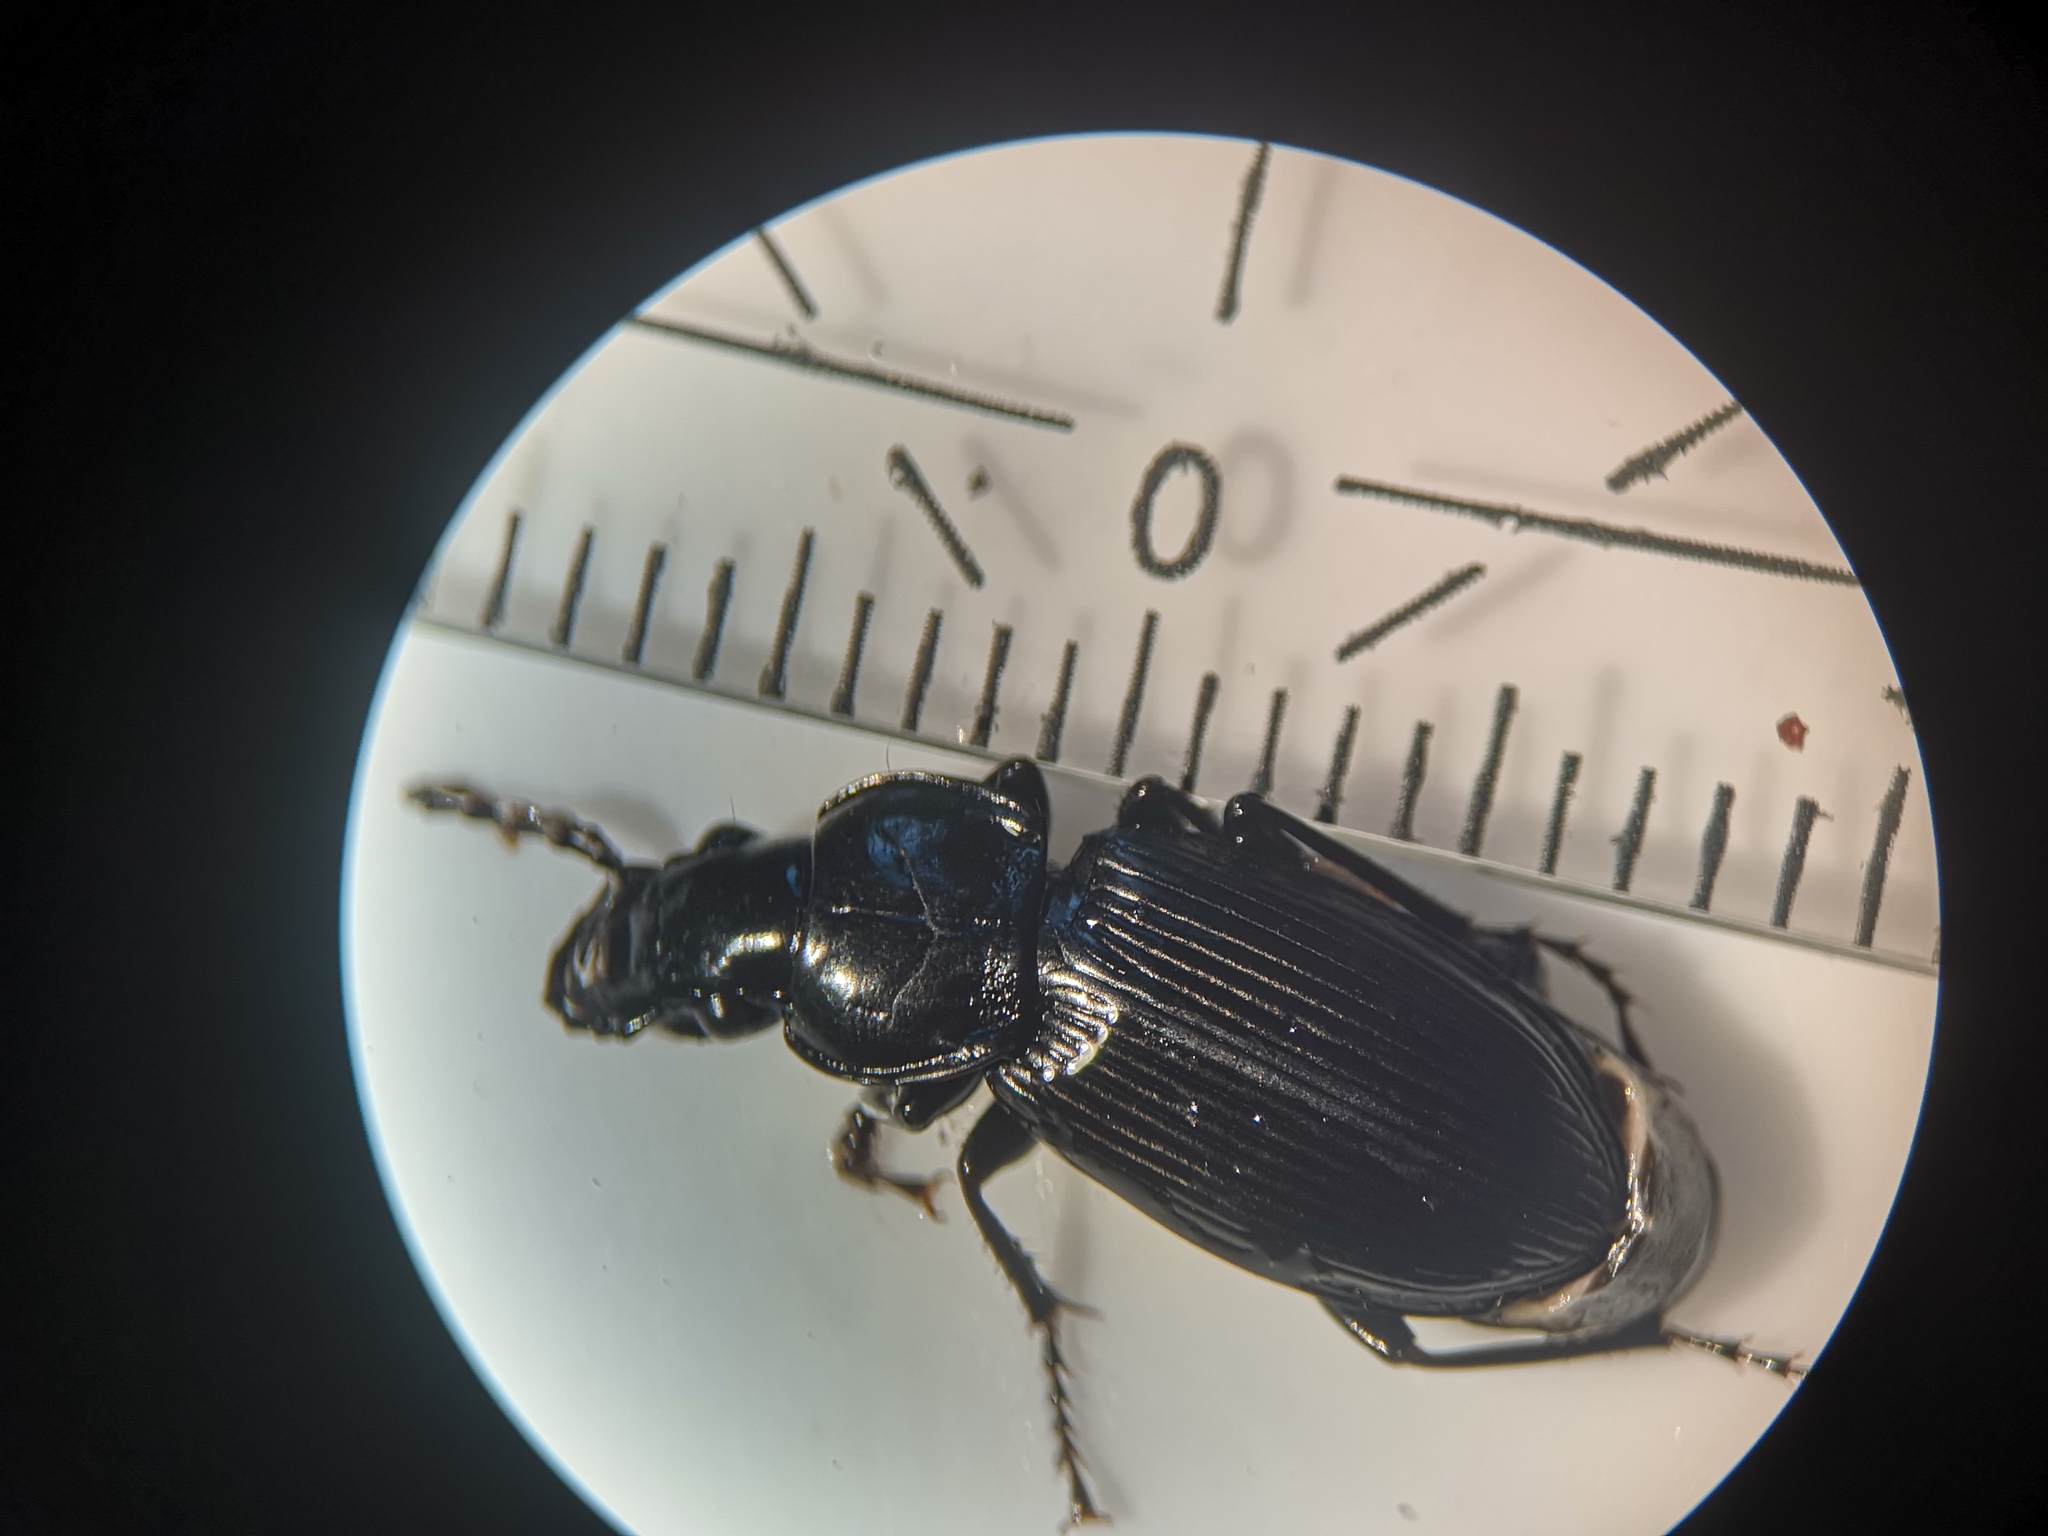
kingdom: Animalia
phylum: Arthropoda
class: Insecta
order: Coleoptera
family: Carabidae
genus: Pterostichus
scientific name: Pterostichus melanarius
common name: European dark harp ground beetle
